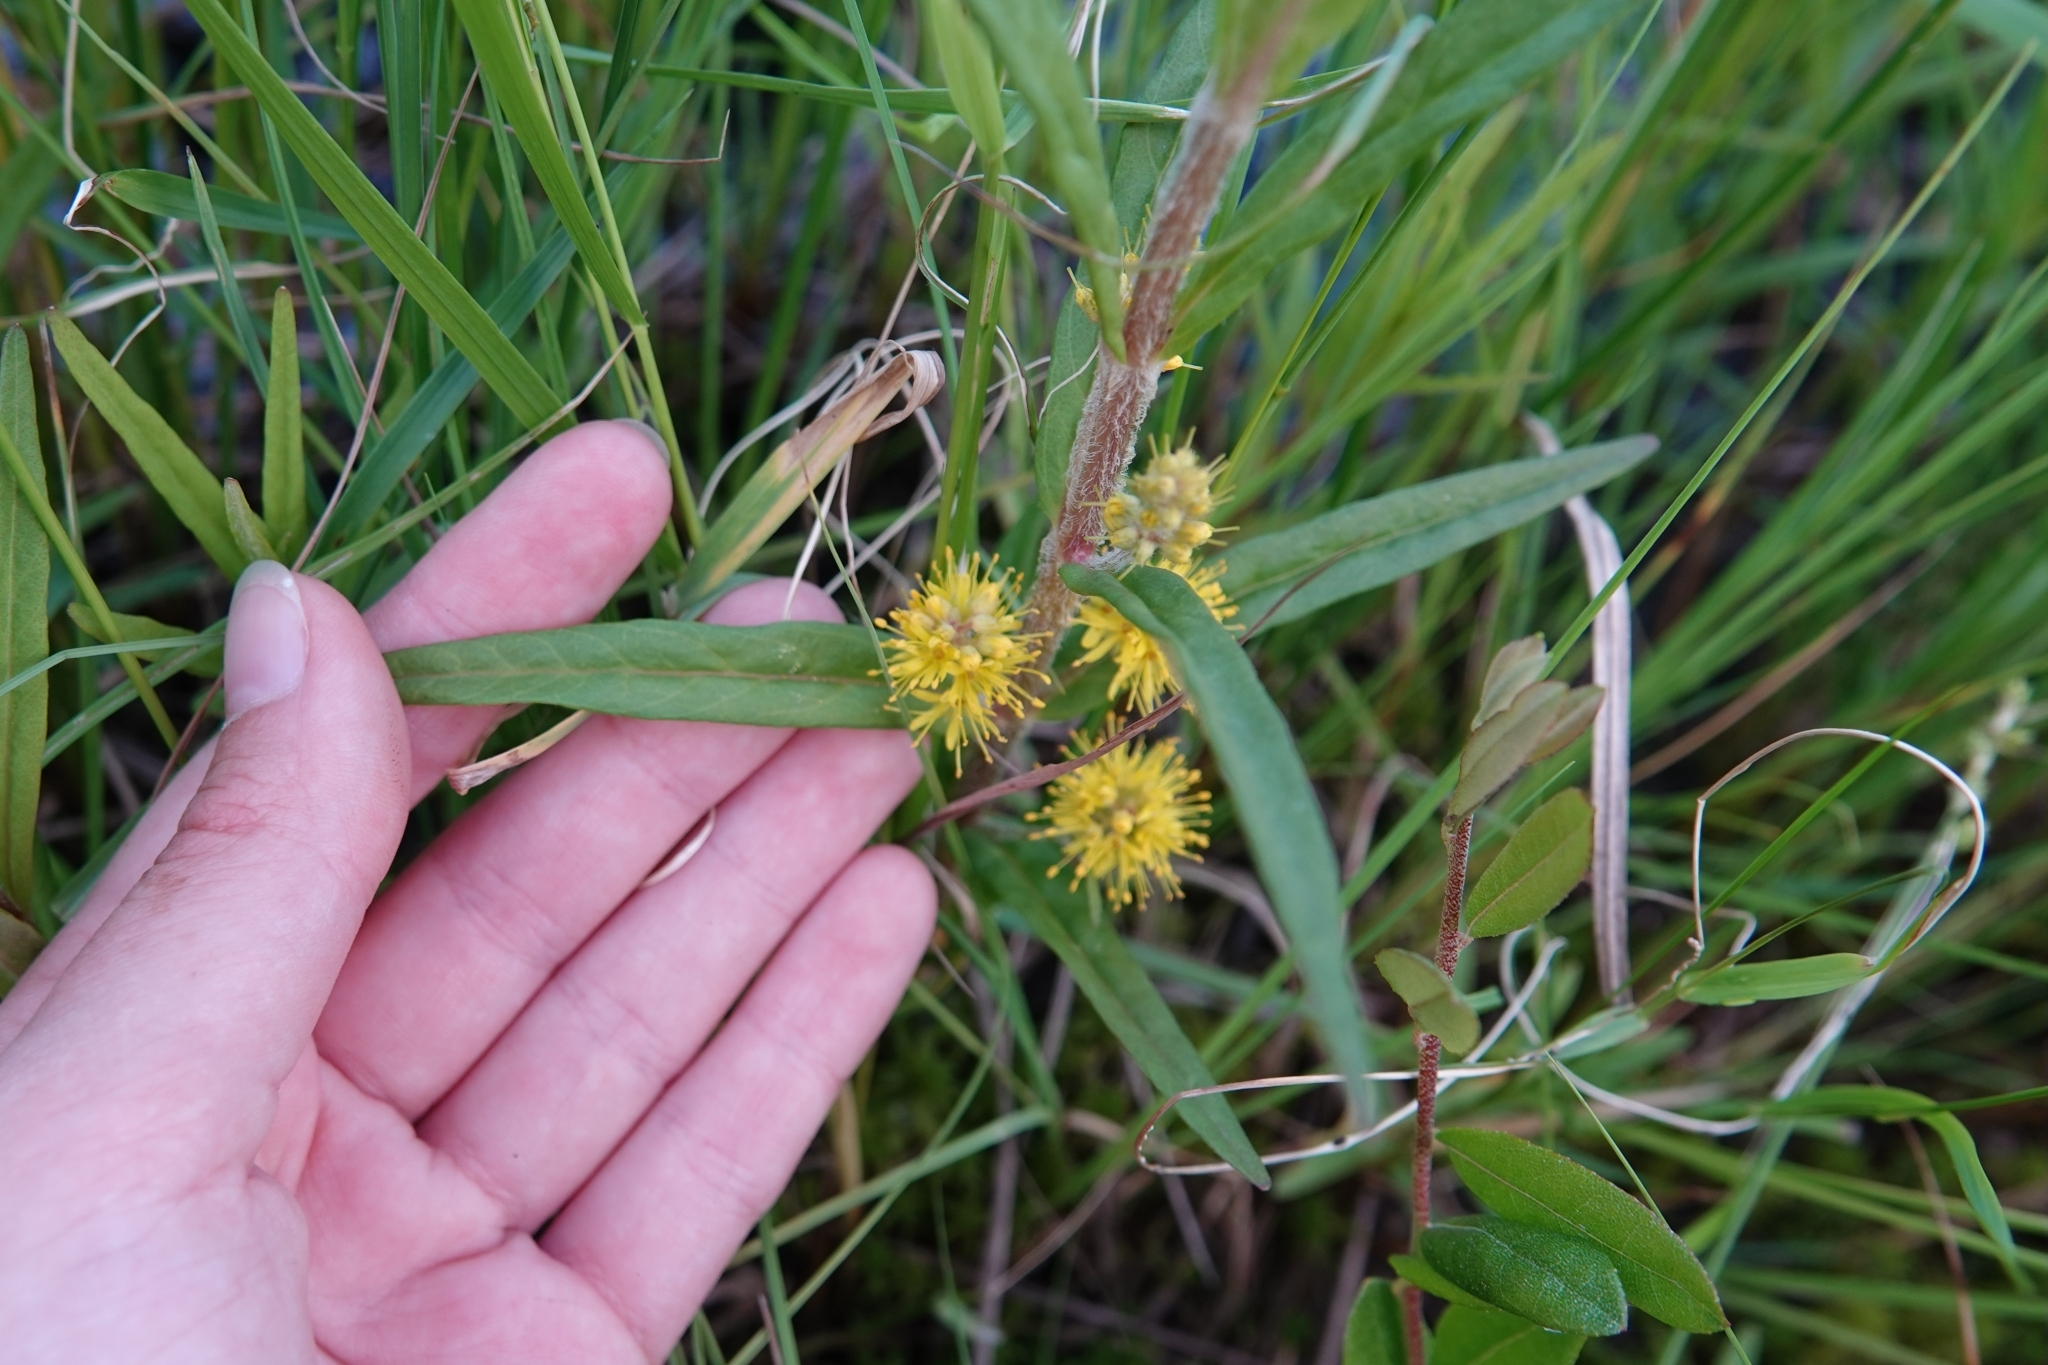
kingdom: Plantae
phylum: Tracheophyta
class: Magnoliopsida
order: Ericales
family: Primulaceae
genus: Lysimachia
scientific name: Lysimachia thyrsiflora
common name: Tufted loosestrife
